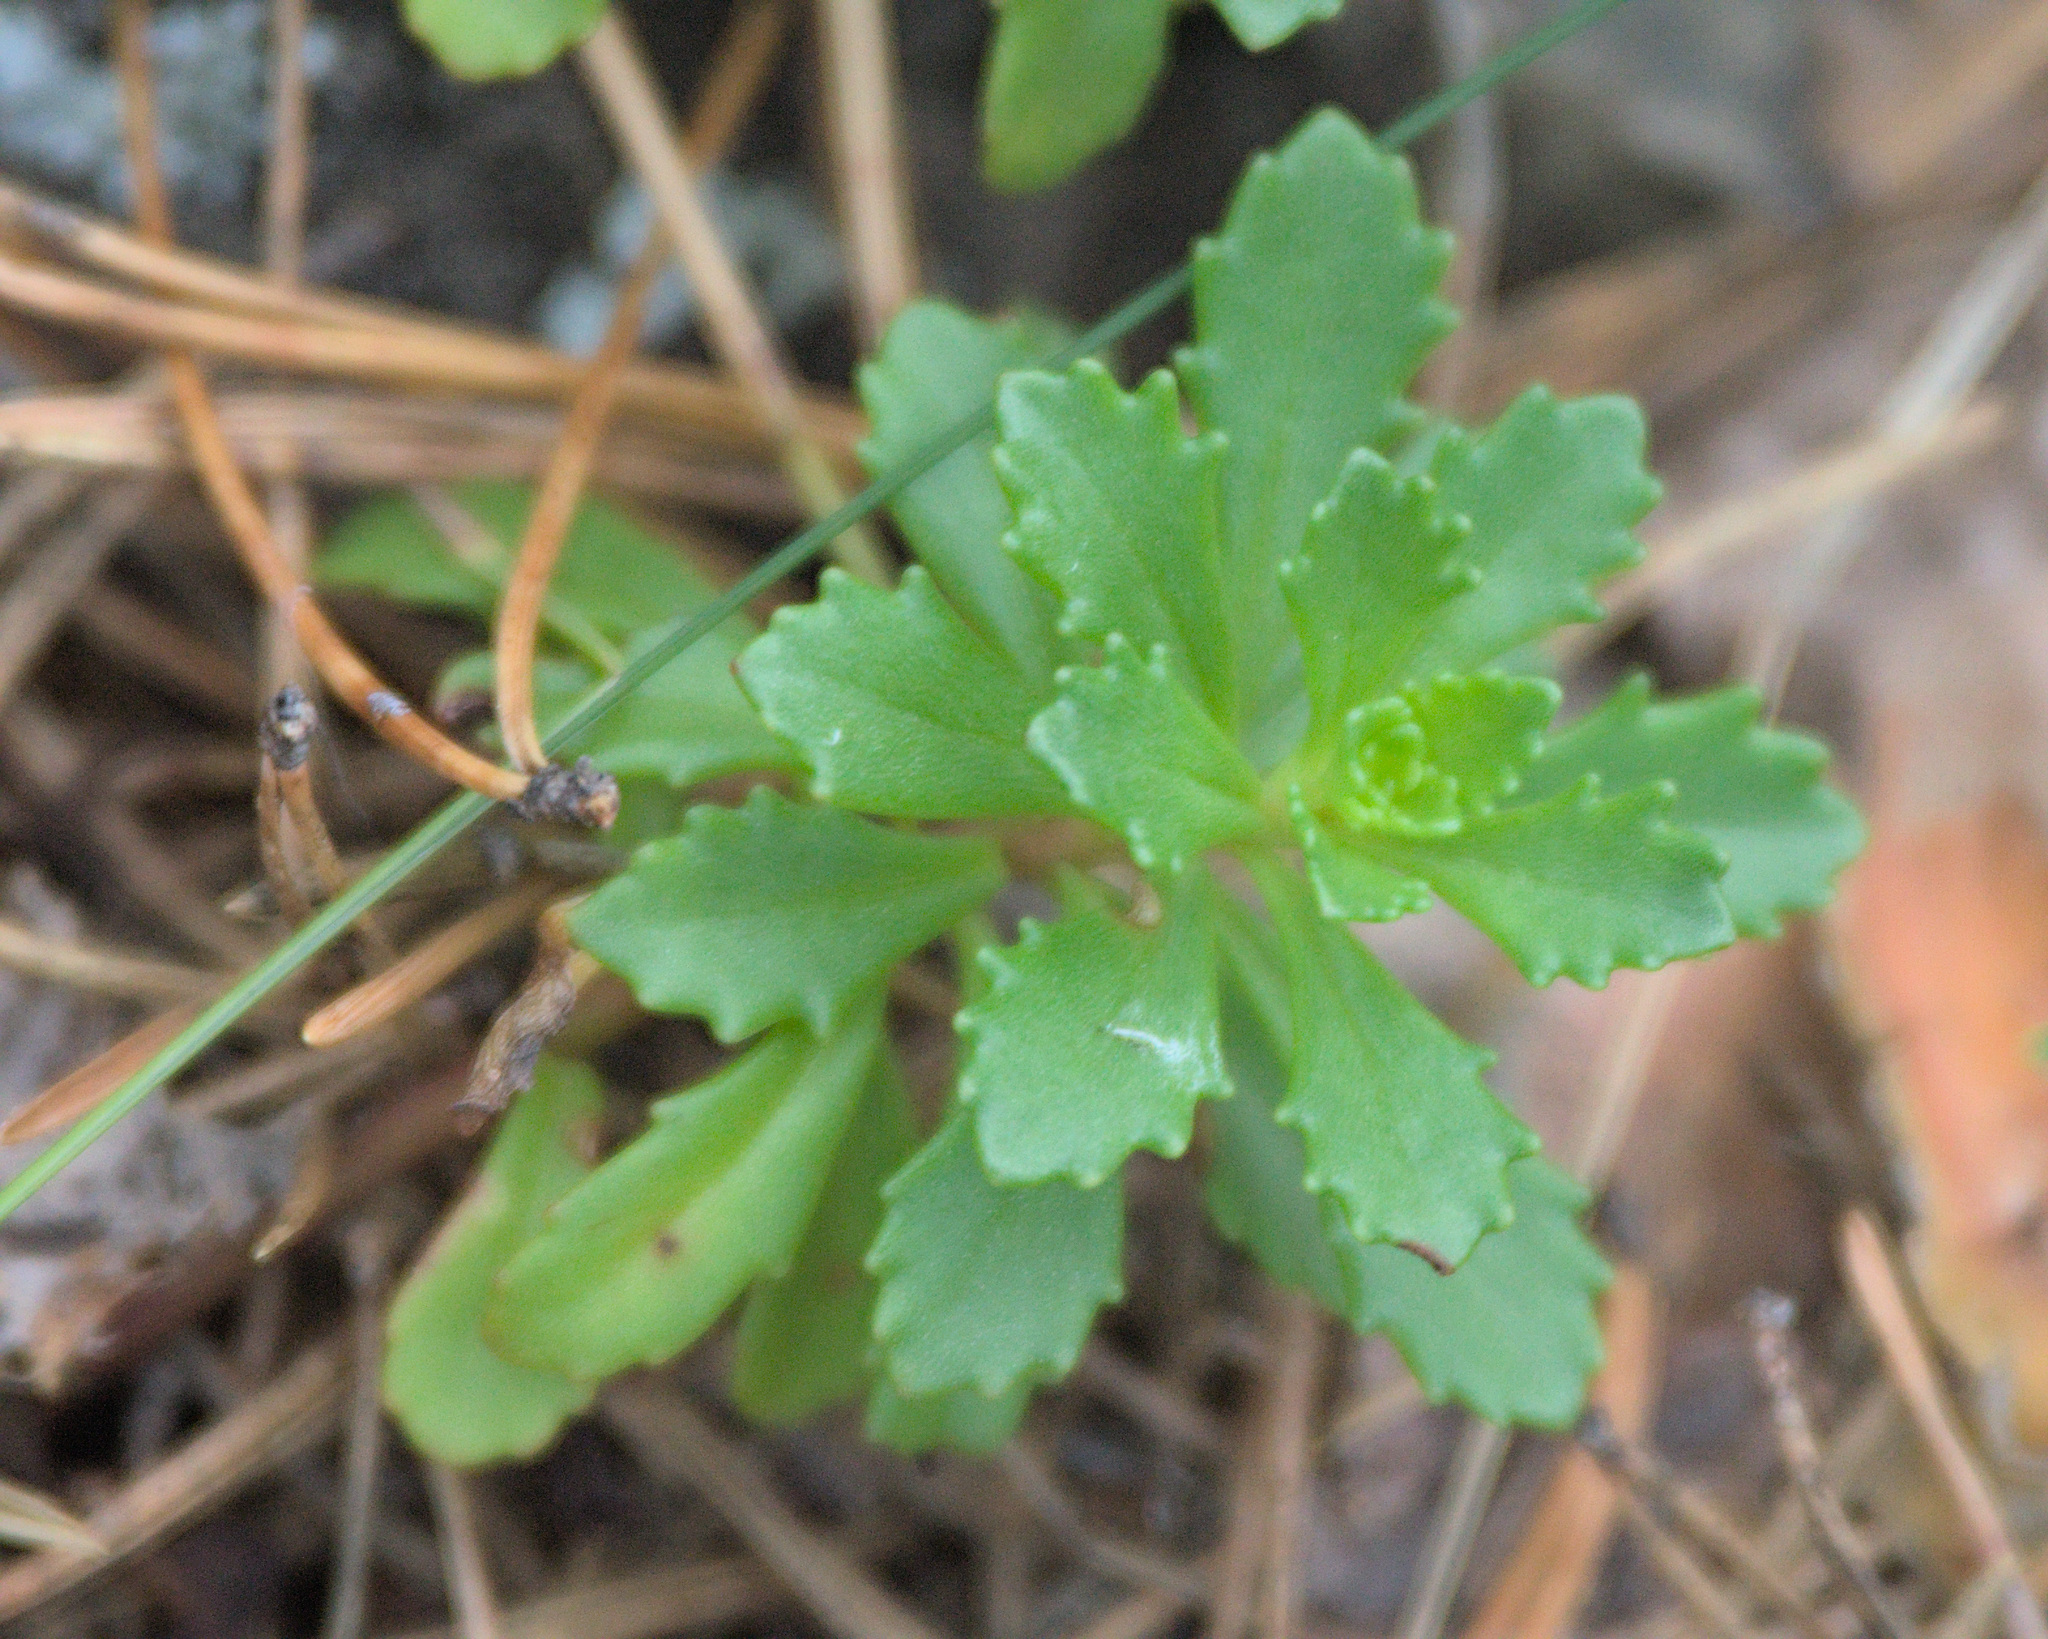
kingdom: Plantae
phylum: Tracheophyta
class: Magnoliopsida
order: Saxifragales
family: Crassulaceae
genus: Phedimus
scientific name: Phedimus hybridus
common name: Hybrid stonecrop
